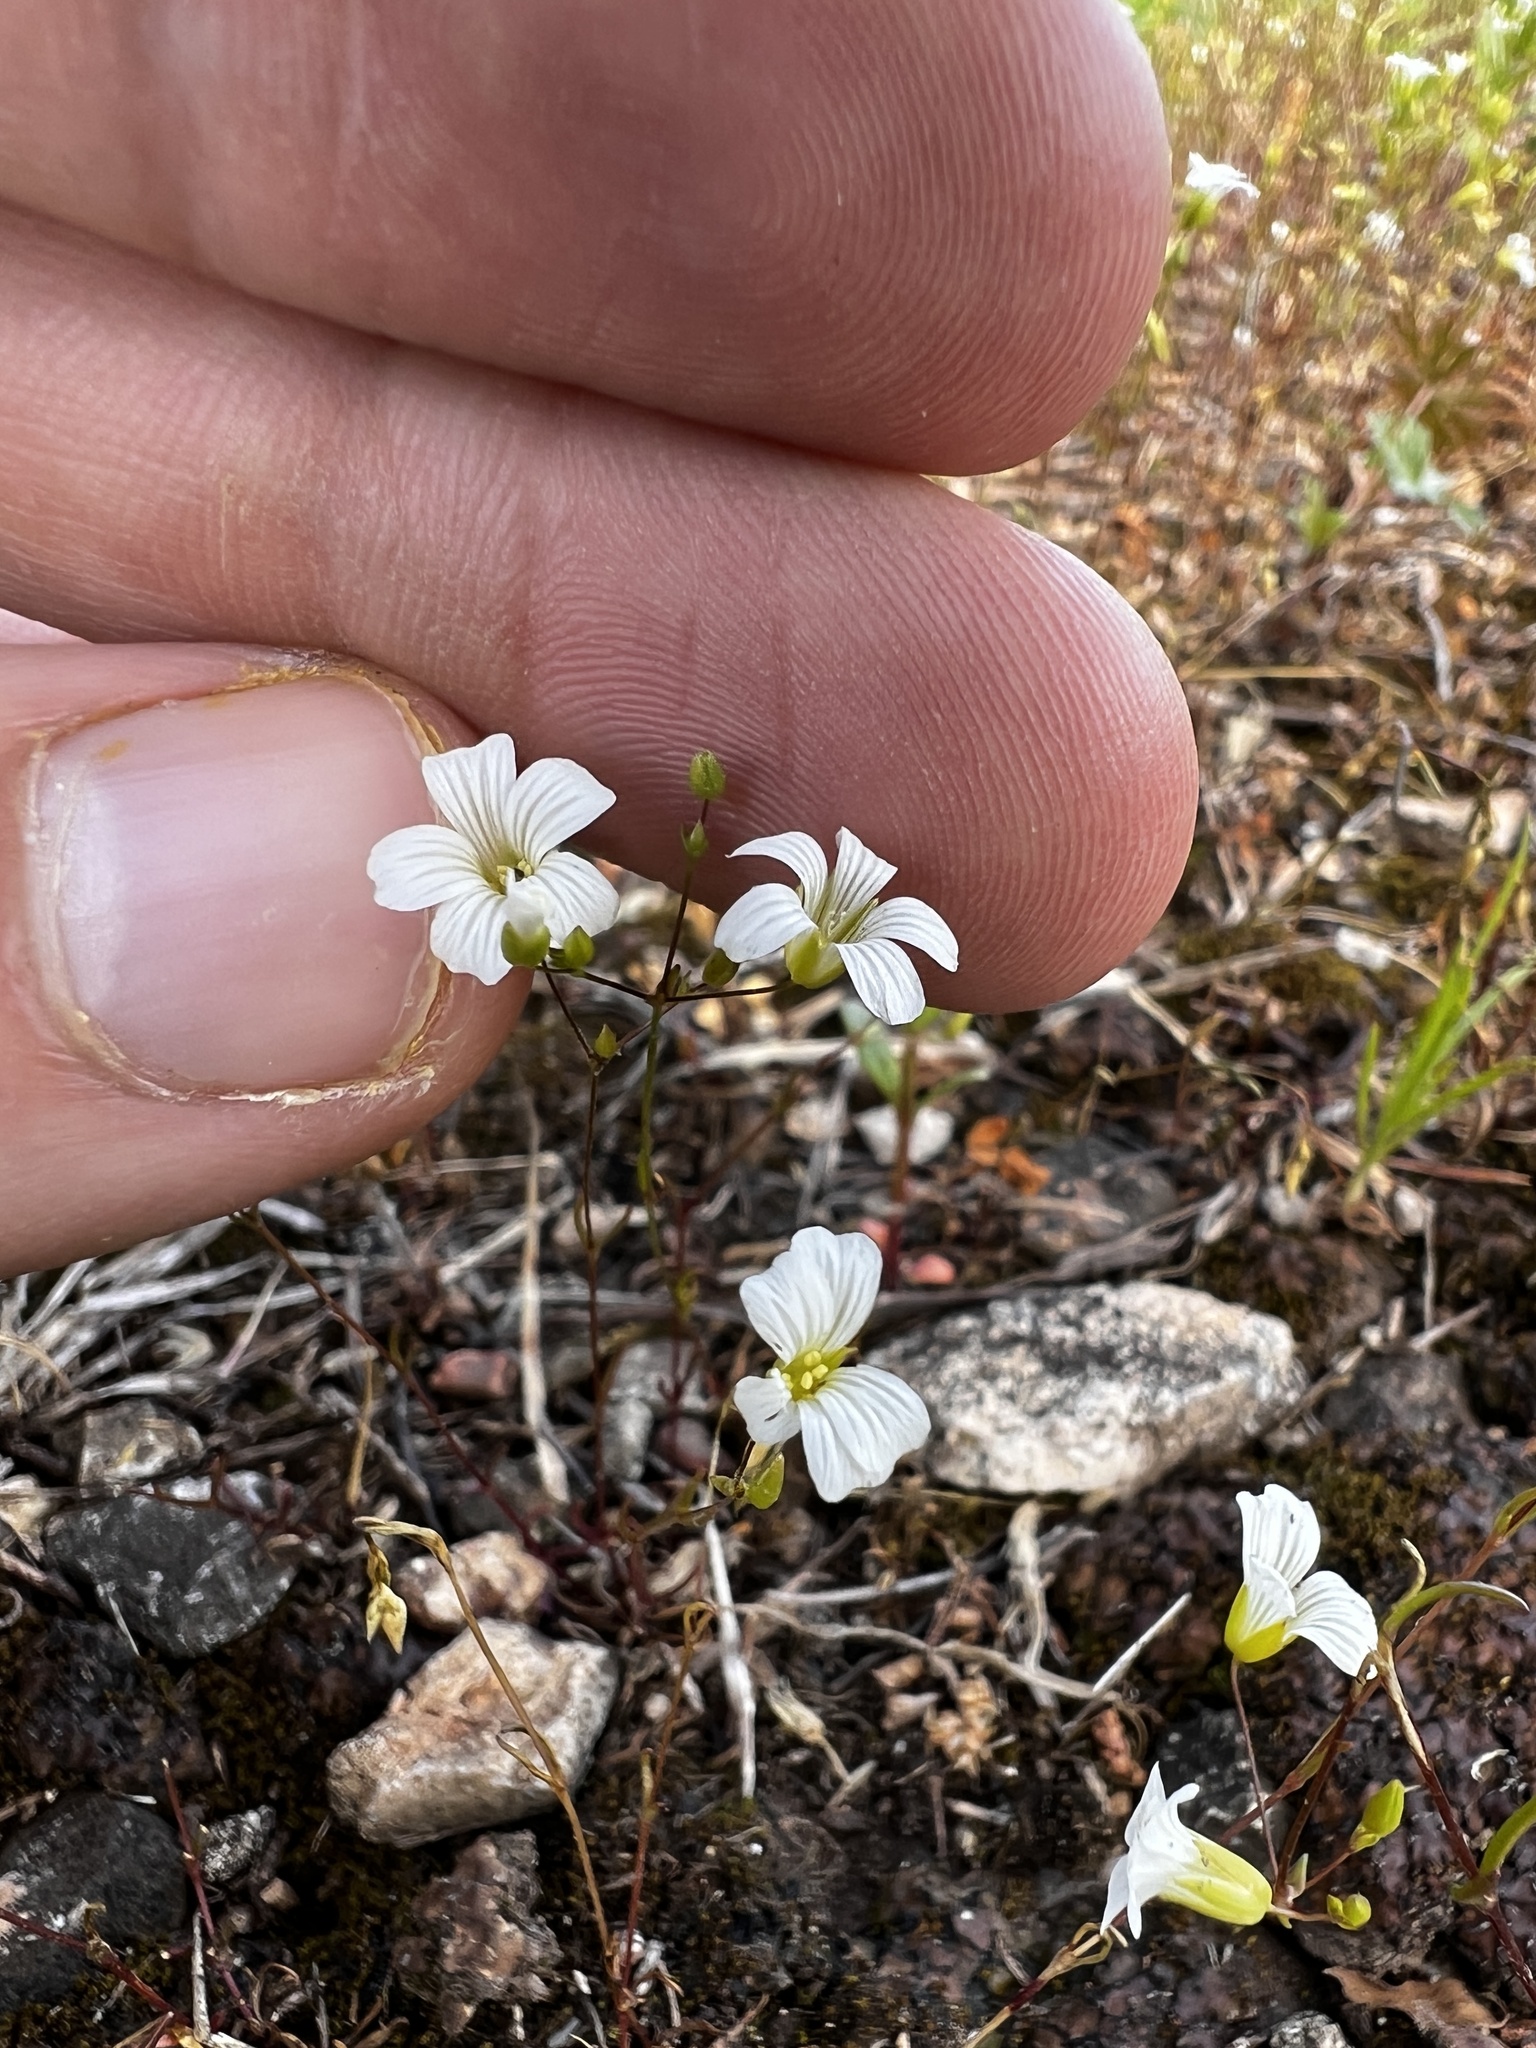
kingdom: Plantae
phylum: Tracheophyta
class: Magnoliopsida
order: Caryophyllales
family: Caryophyllaceae
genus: Mononeuria
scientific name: Mononeuria patula
